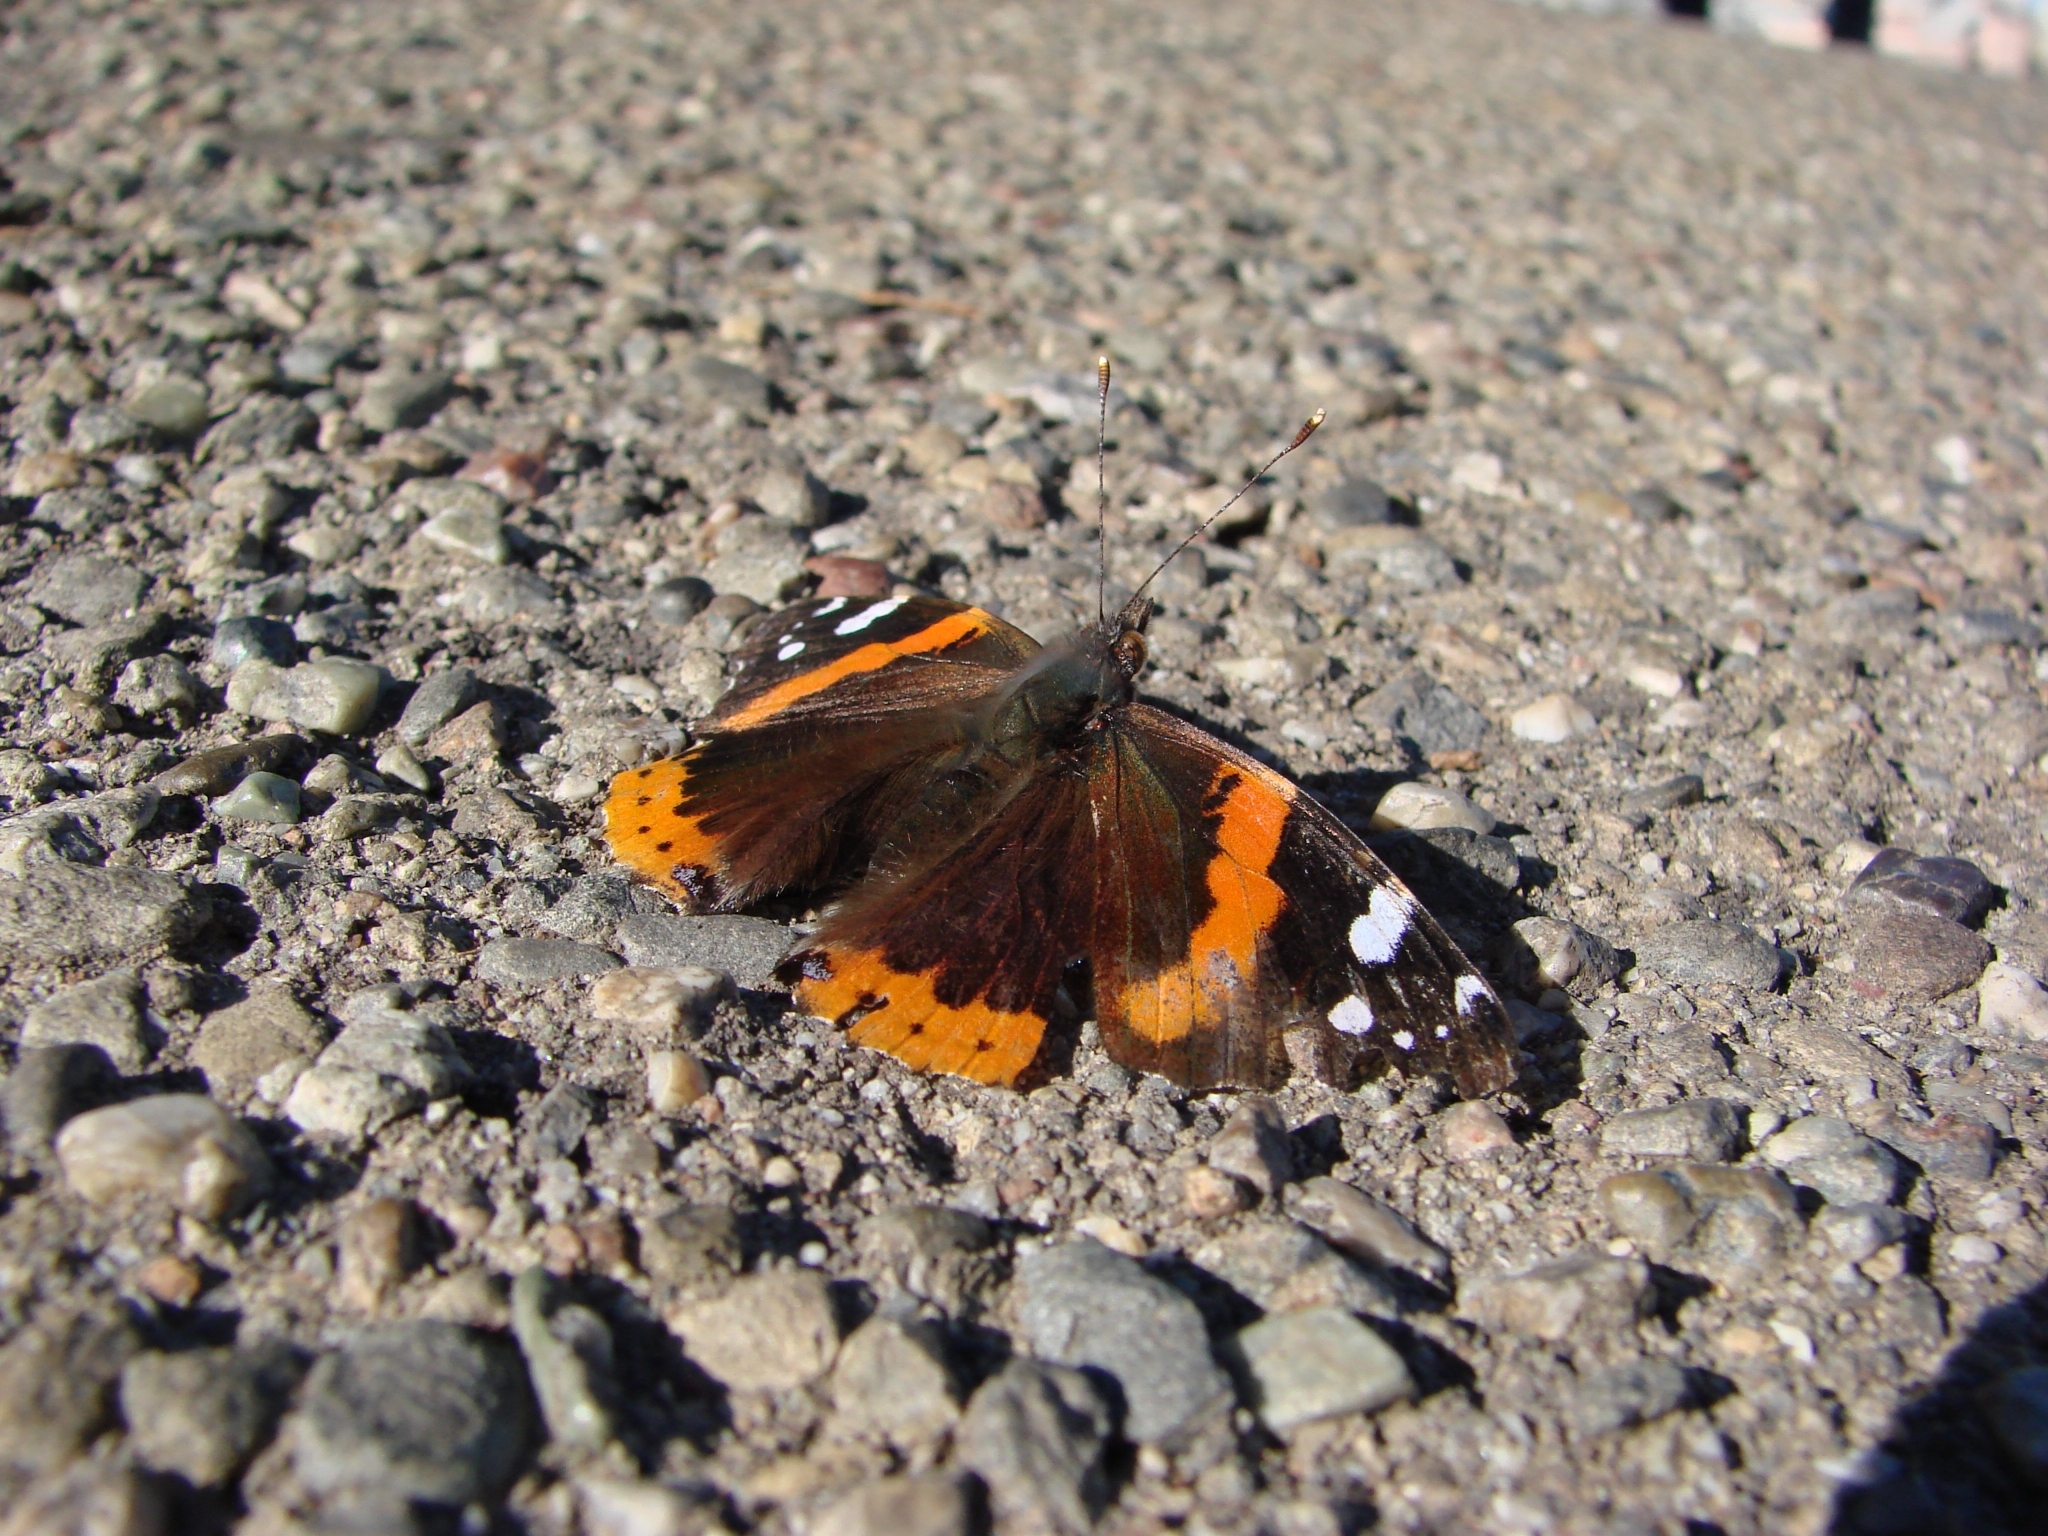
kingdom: Animalia
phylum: Arthropoda
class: Insecta
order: Lepidoptera
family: Nymphalidae
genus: Vanessa
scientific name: Vanessa atalanta
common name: Red admiral
